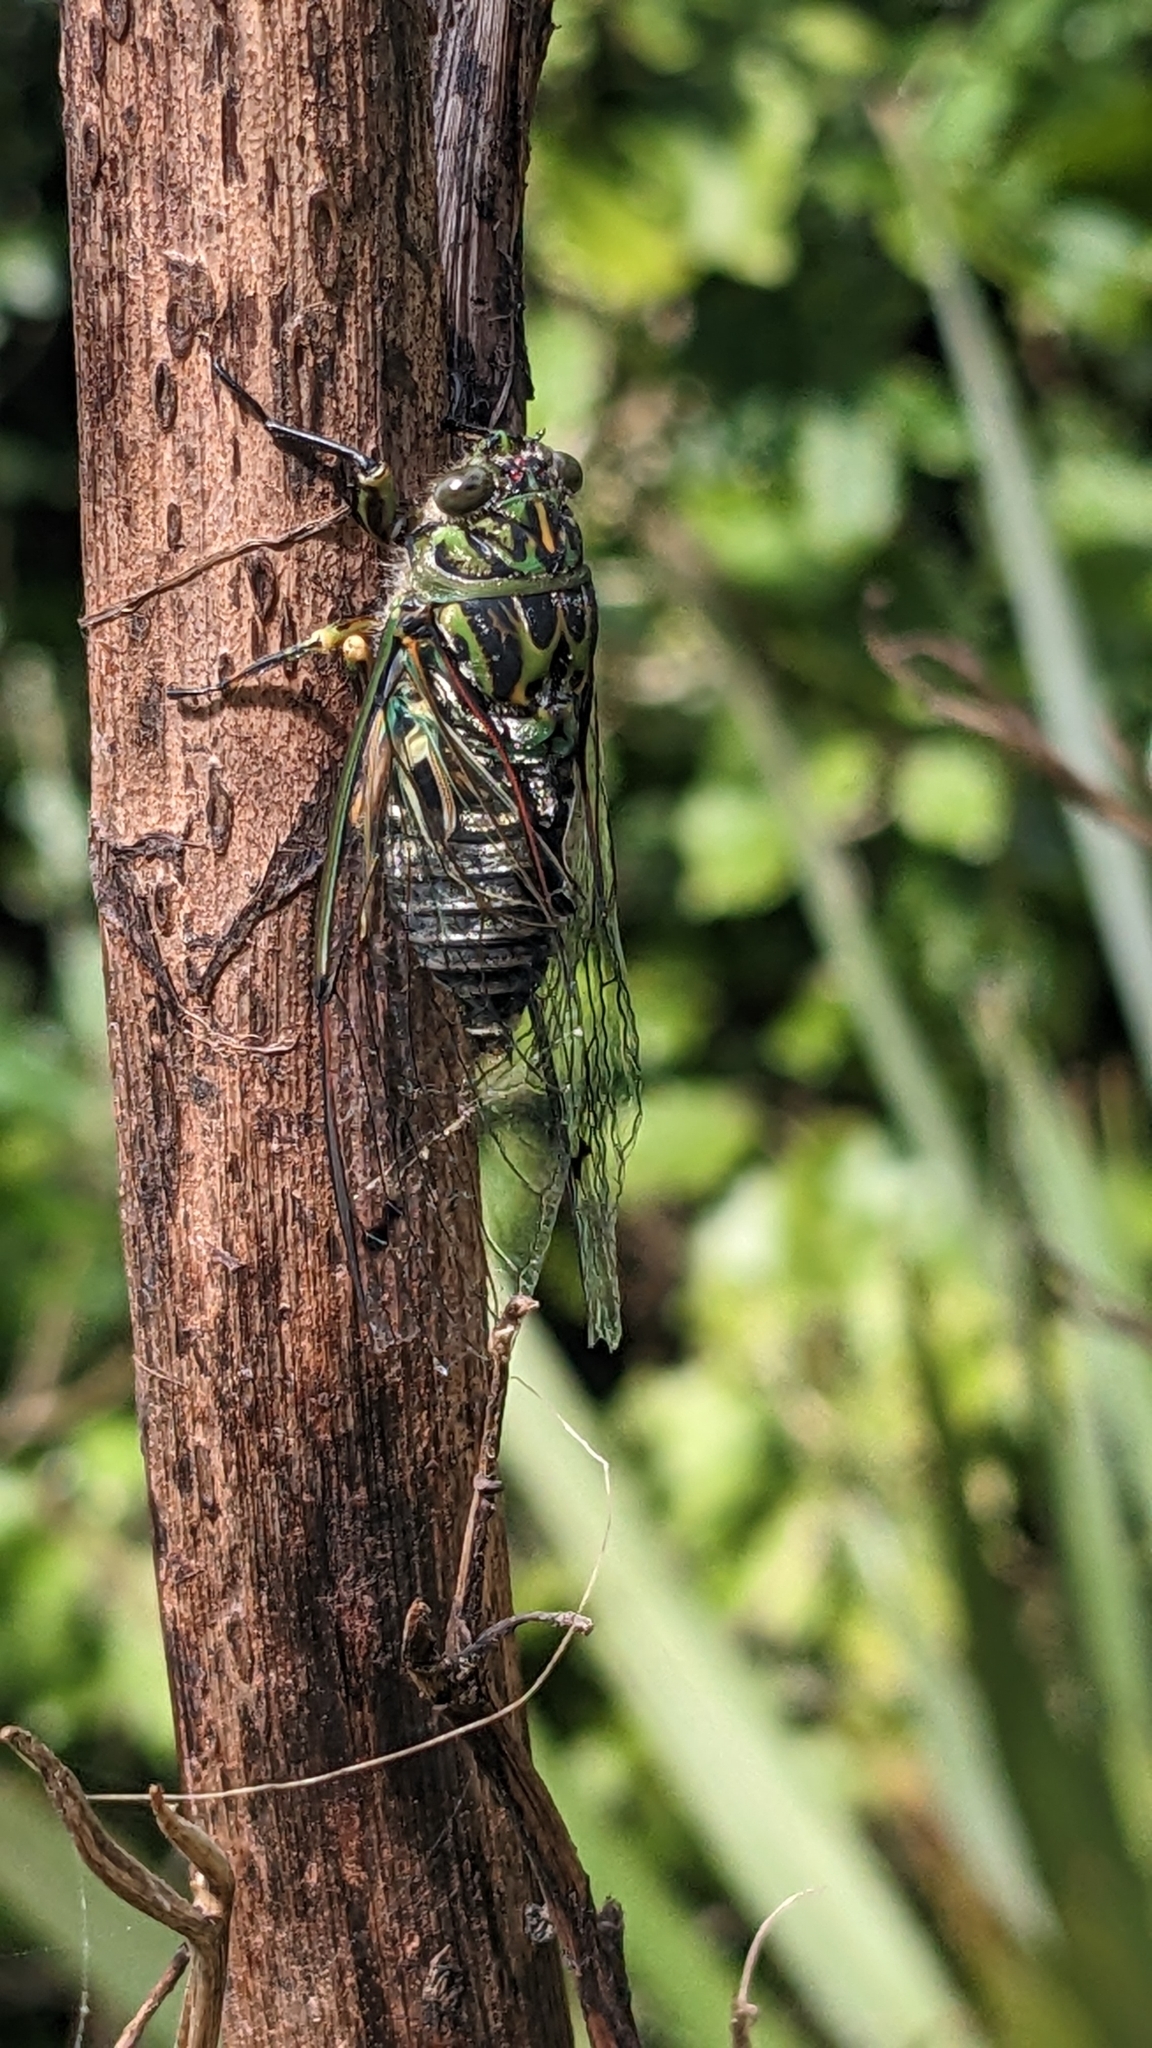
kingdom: Animalia
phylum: Arthropoda
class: Insecta
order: Hemiptera
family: Cicadidae
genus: Amphipsalta
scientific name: Amphipsalta zelandica
